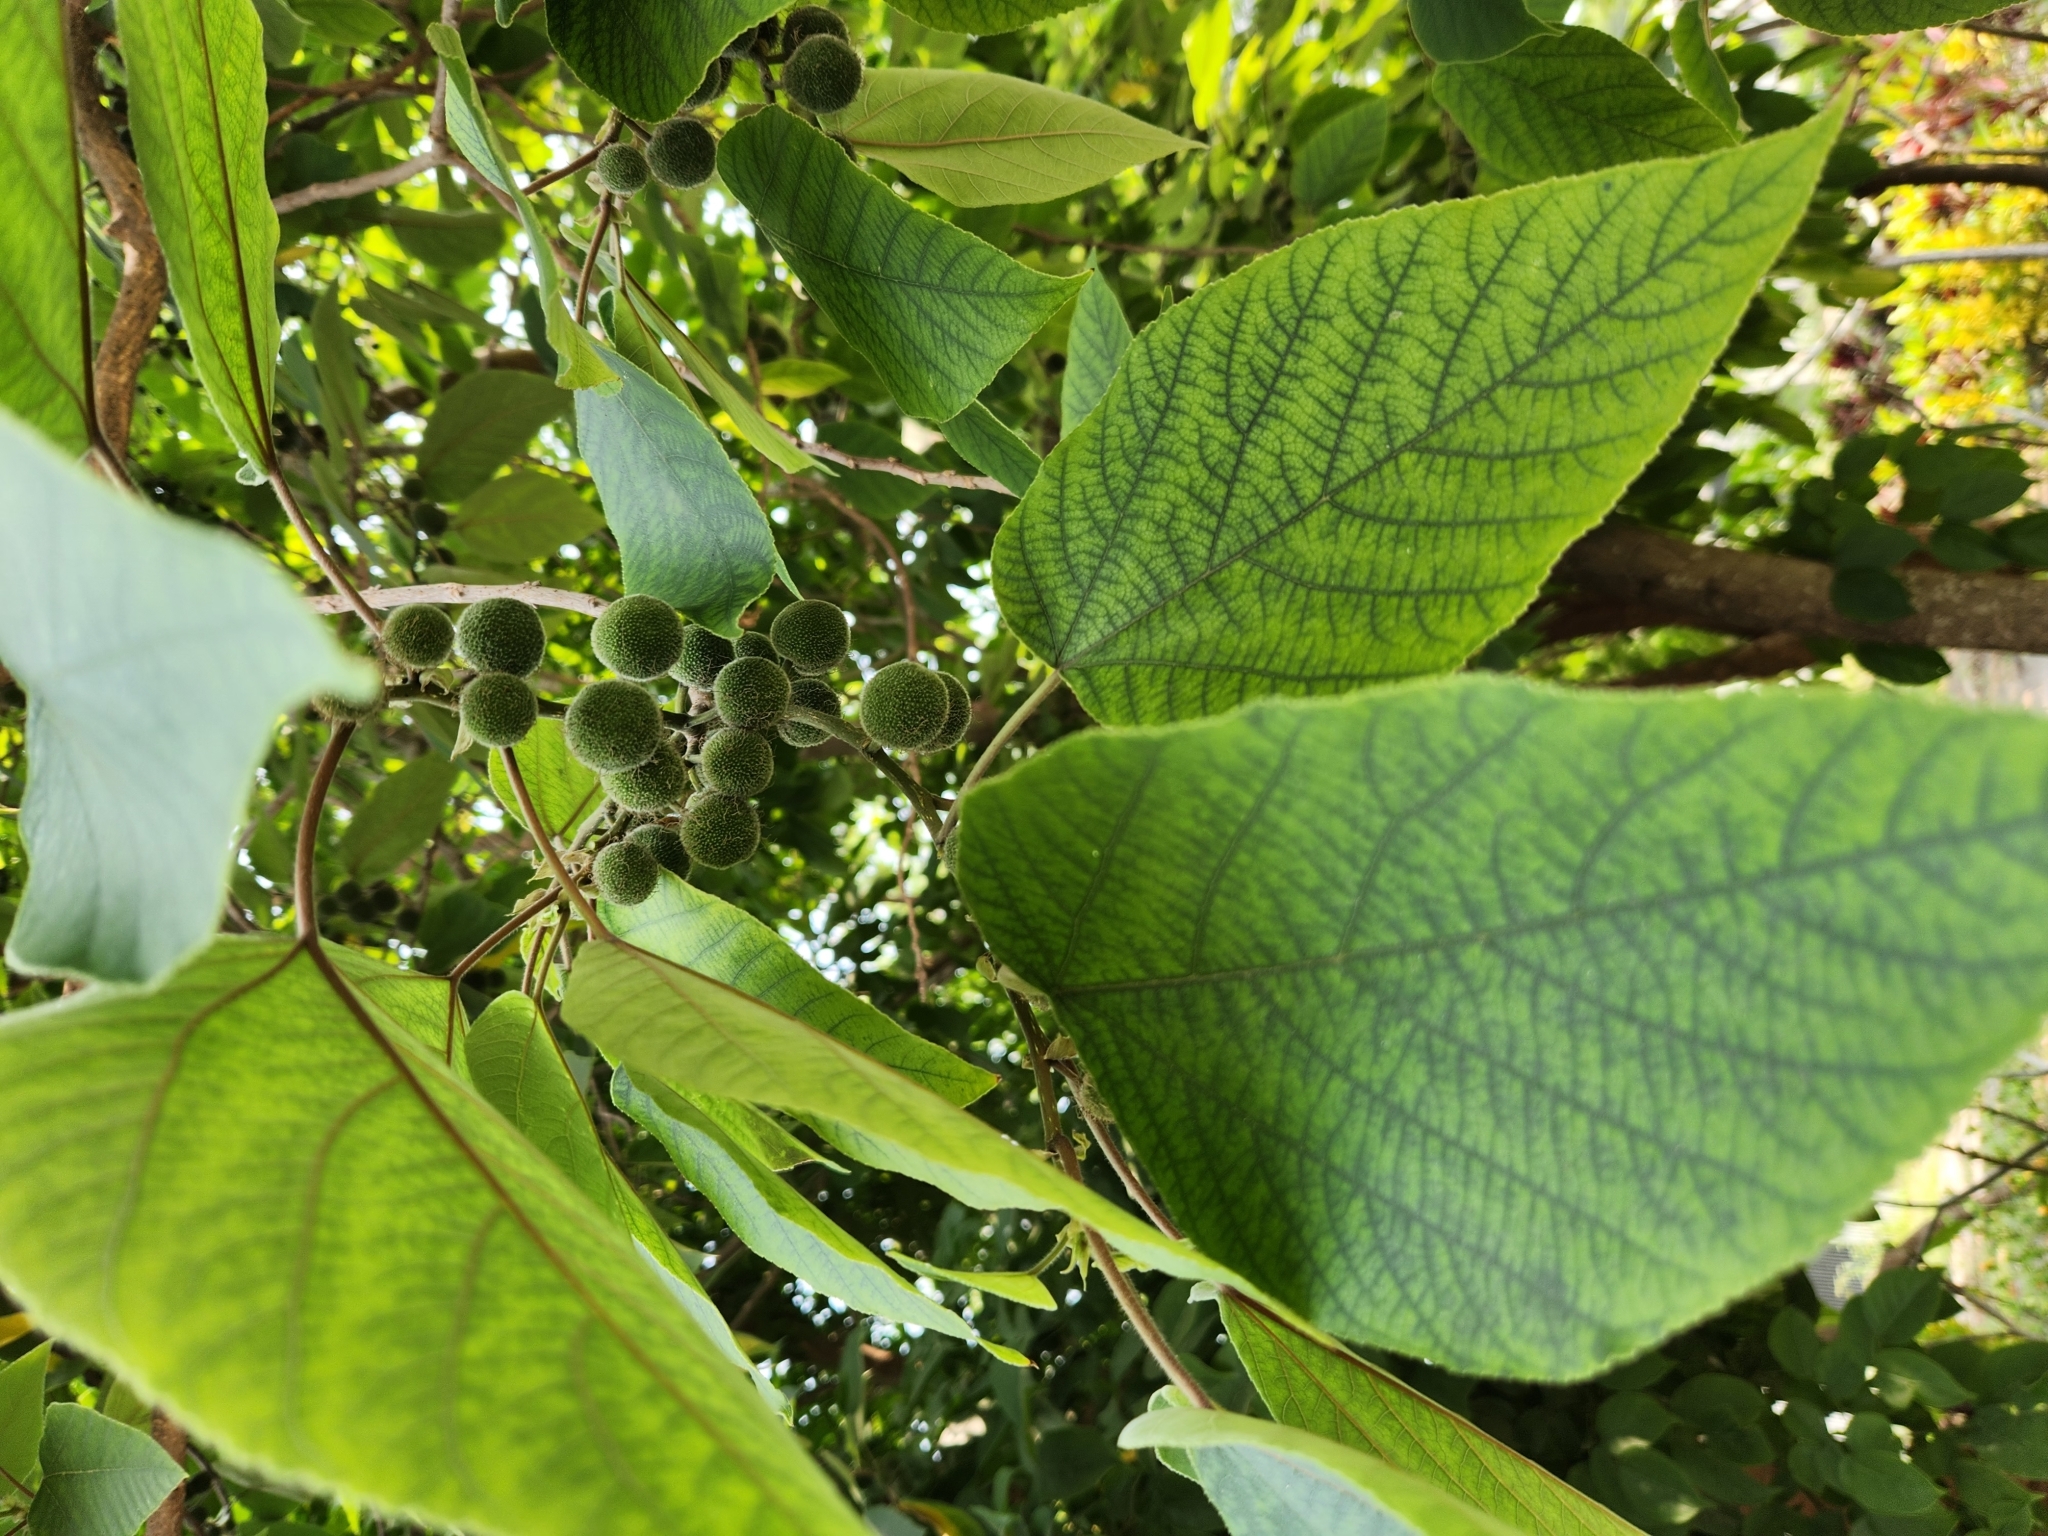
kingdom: Plantae
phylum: Tracheophyta
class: Magnoliopsida
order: Rosales
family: Moraceae
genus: Broussonetia
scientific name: Broussonetia papyrifera
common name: Paper mulberry
